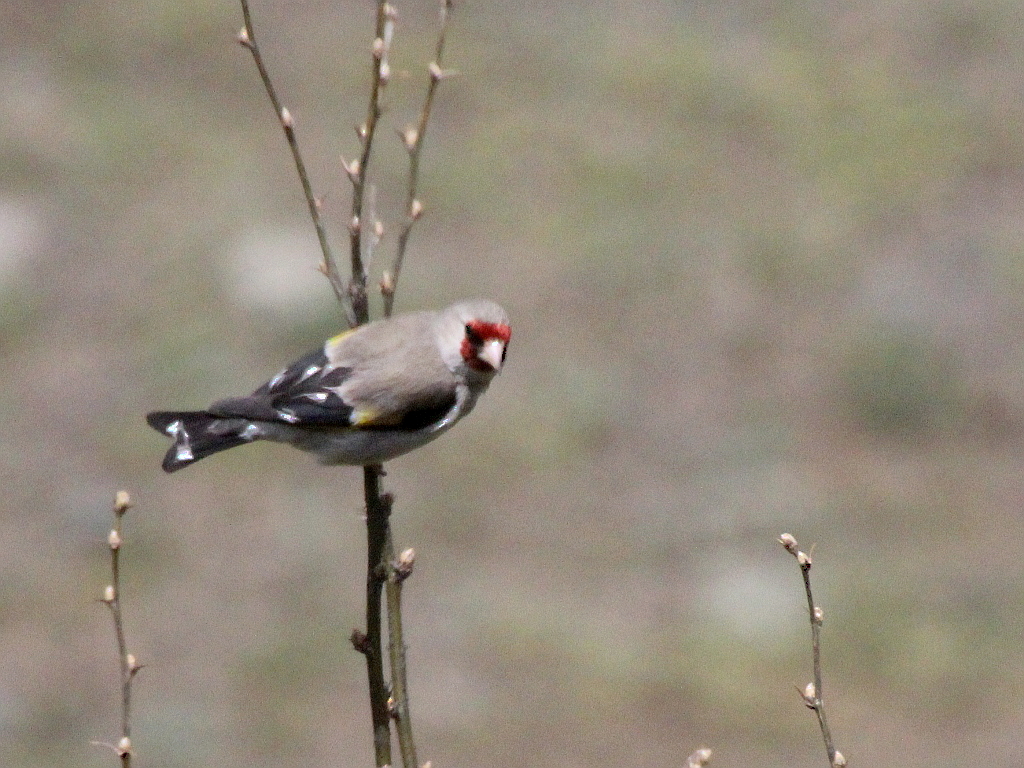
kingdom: Animalia
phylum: Chordata
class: Aves
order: Passeriformes
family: Fringillidae
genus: Carduelis
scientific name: Carduelis carduelis
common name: European goldfinch
